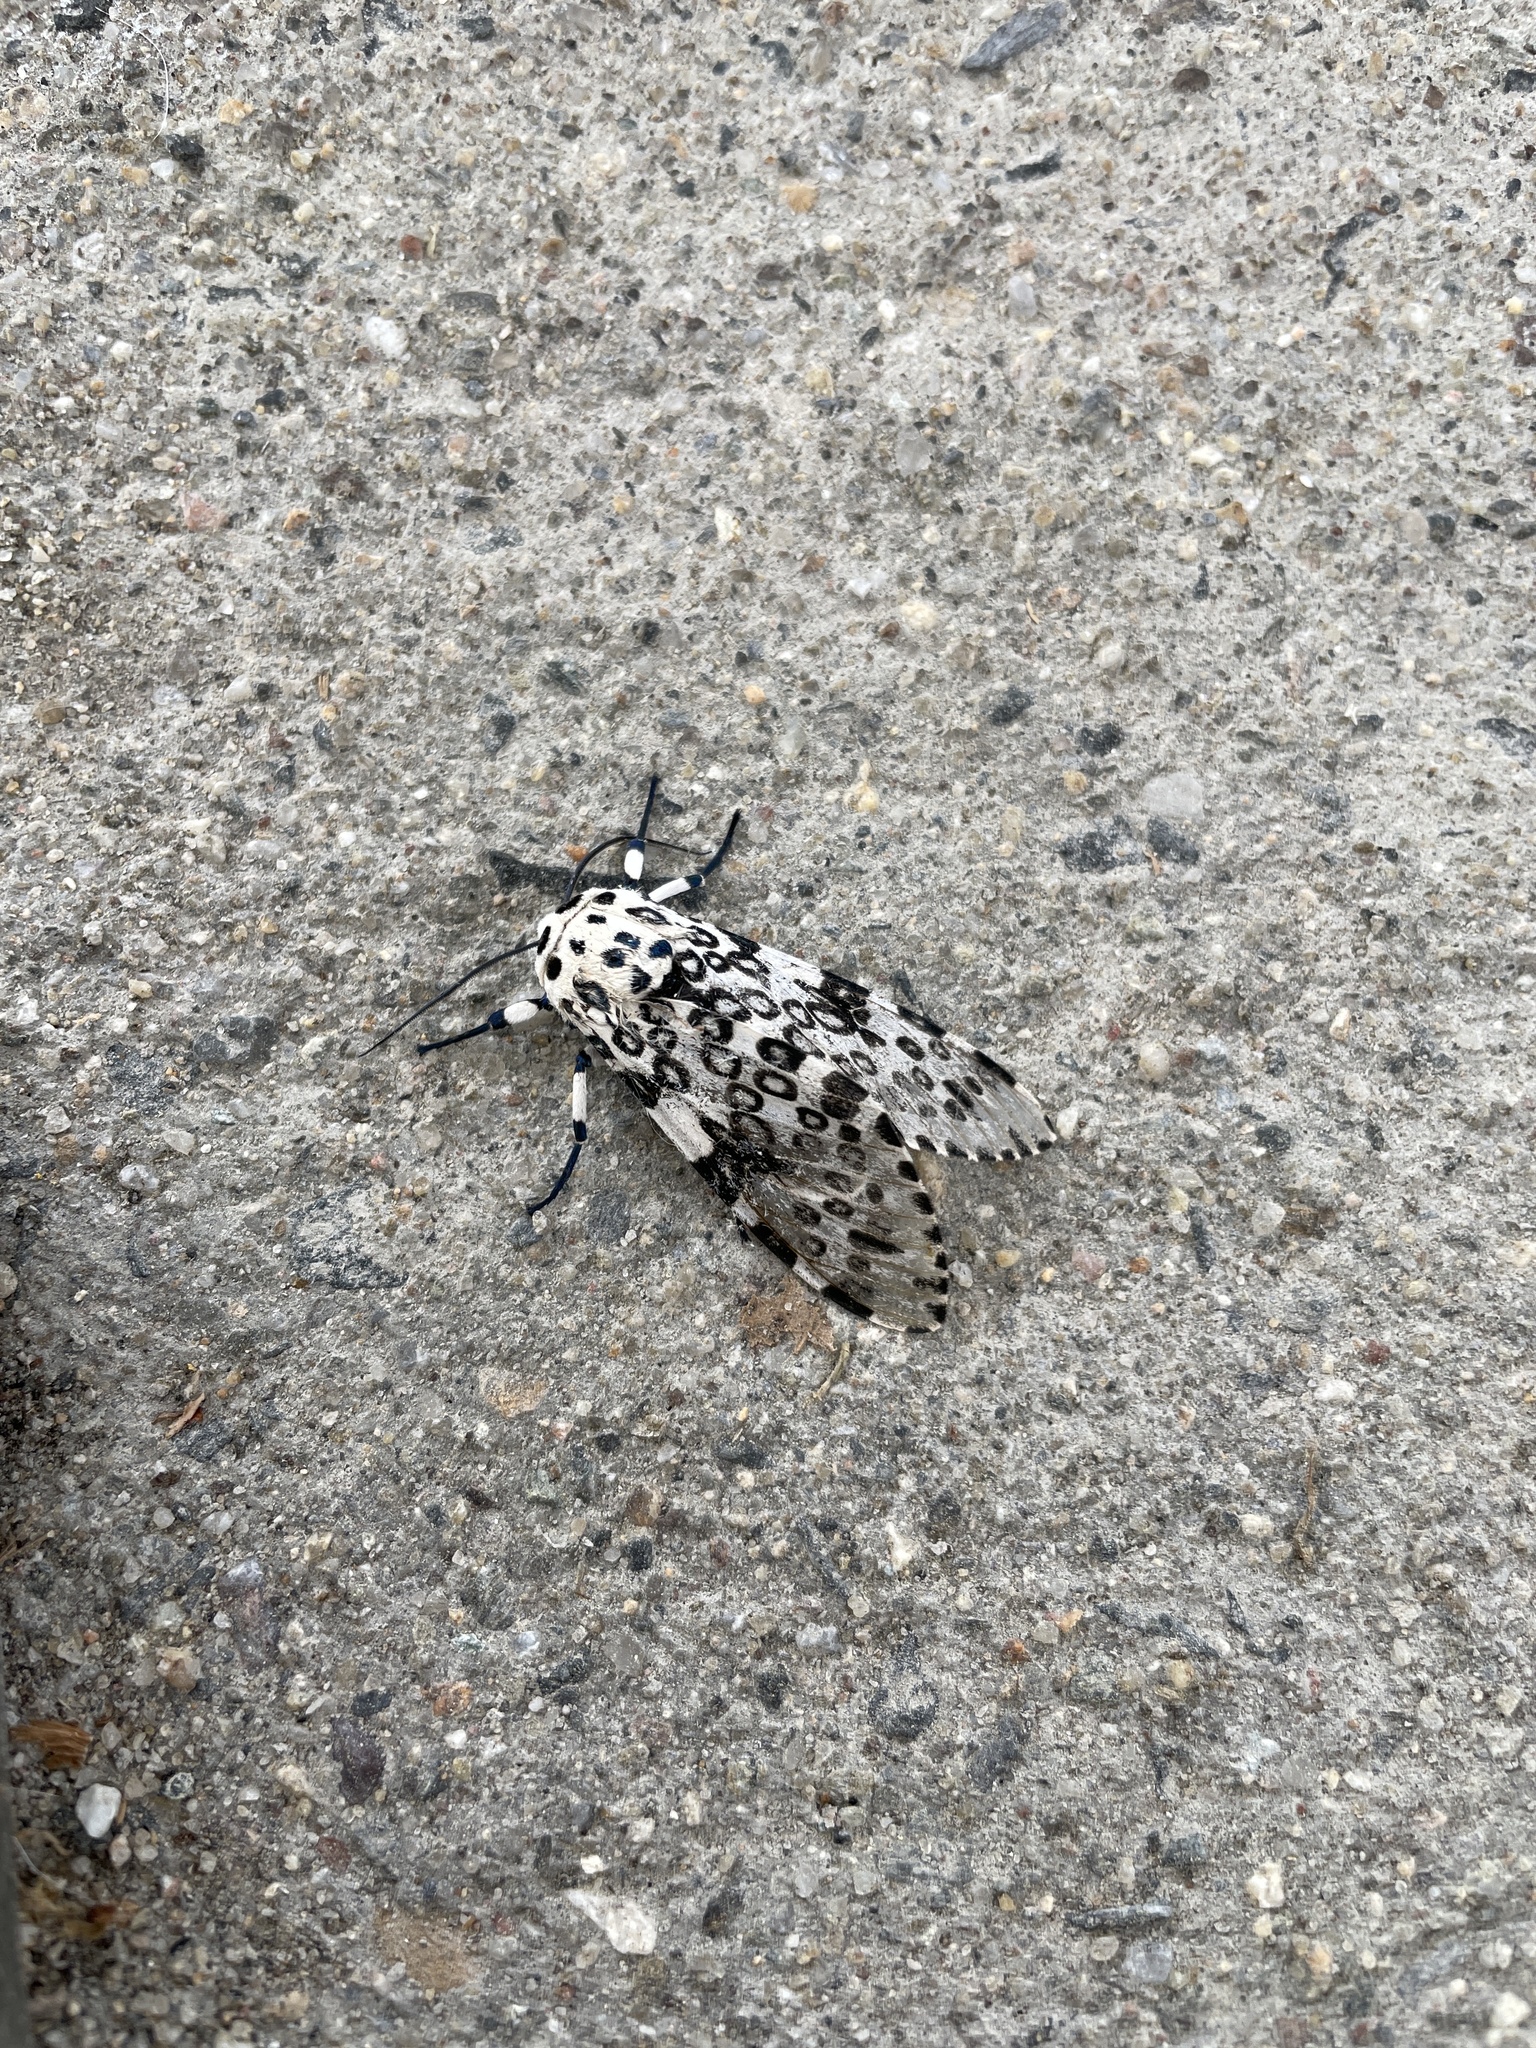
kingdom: Animalia
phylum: Arthropoda
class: Insecta
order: Lepidoptera
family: Erebidae
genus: Hypercompe
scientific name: Hypercompe scribonia
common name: Giant leopard moth
